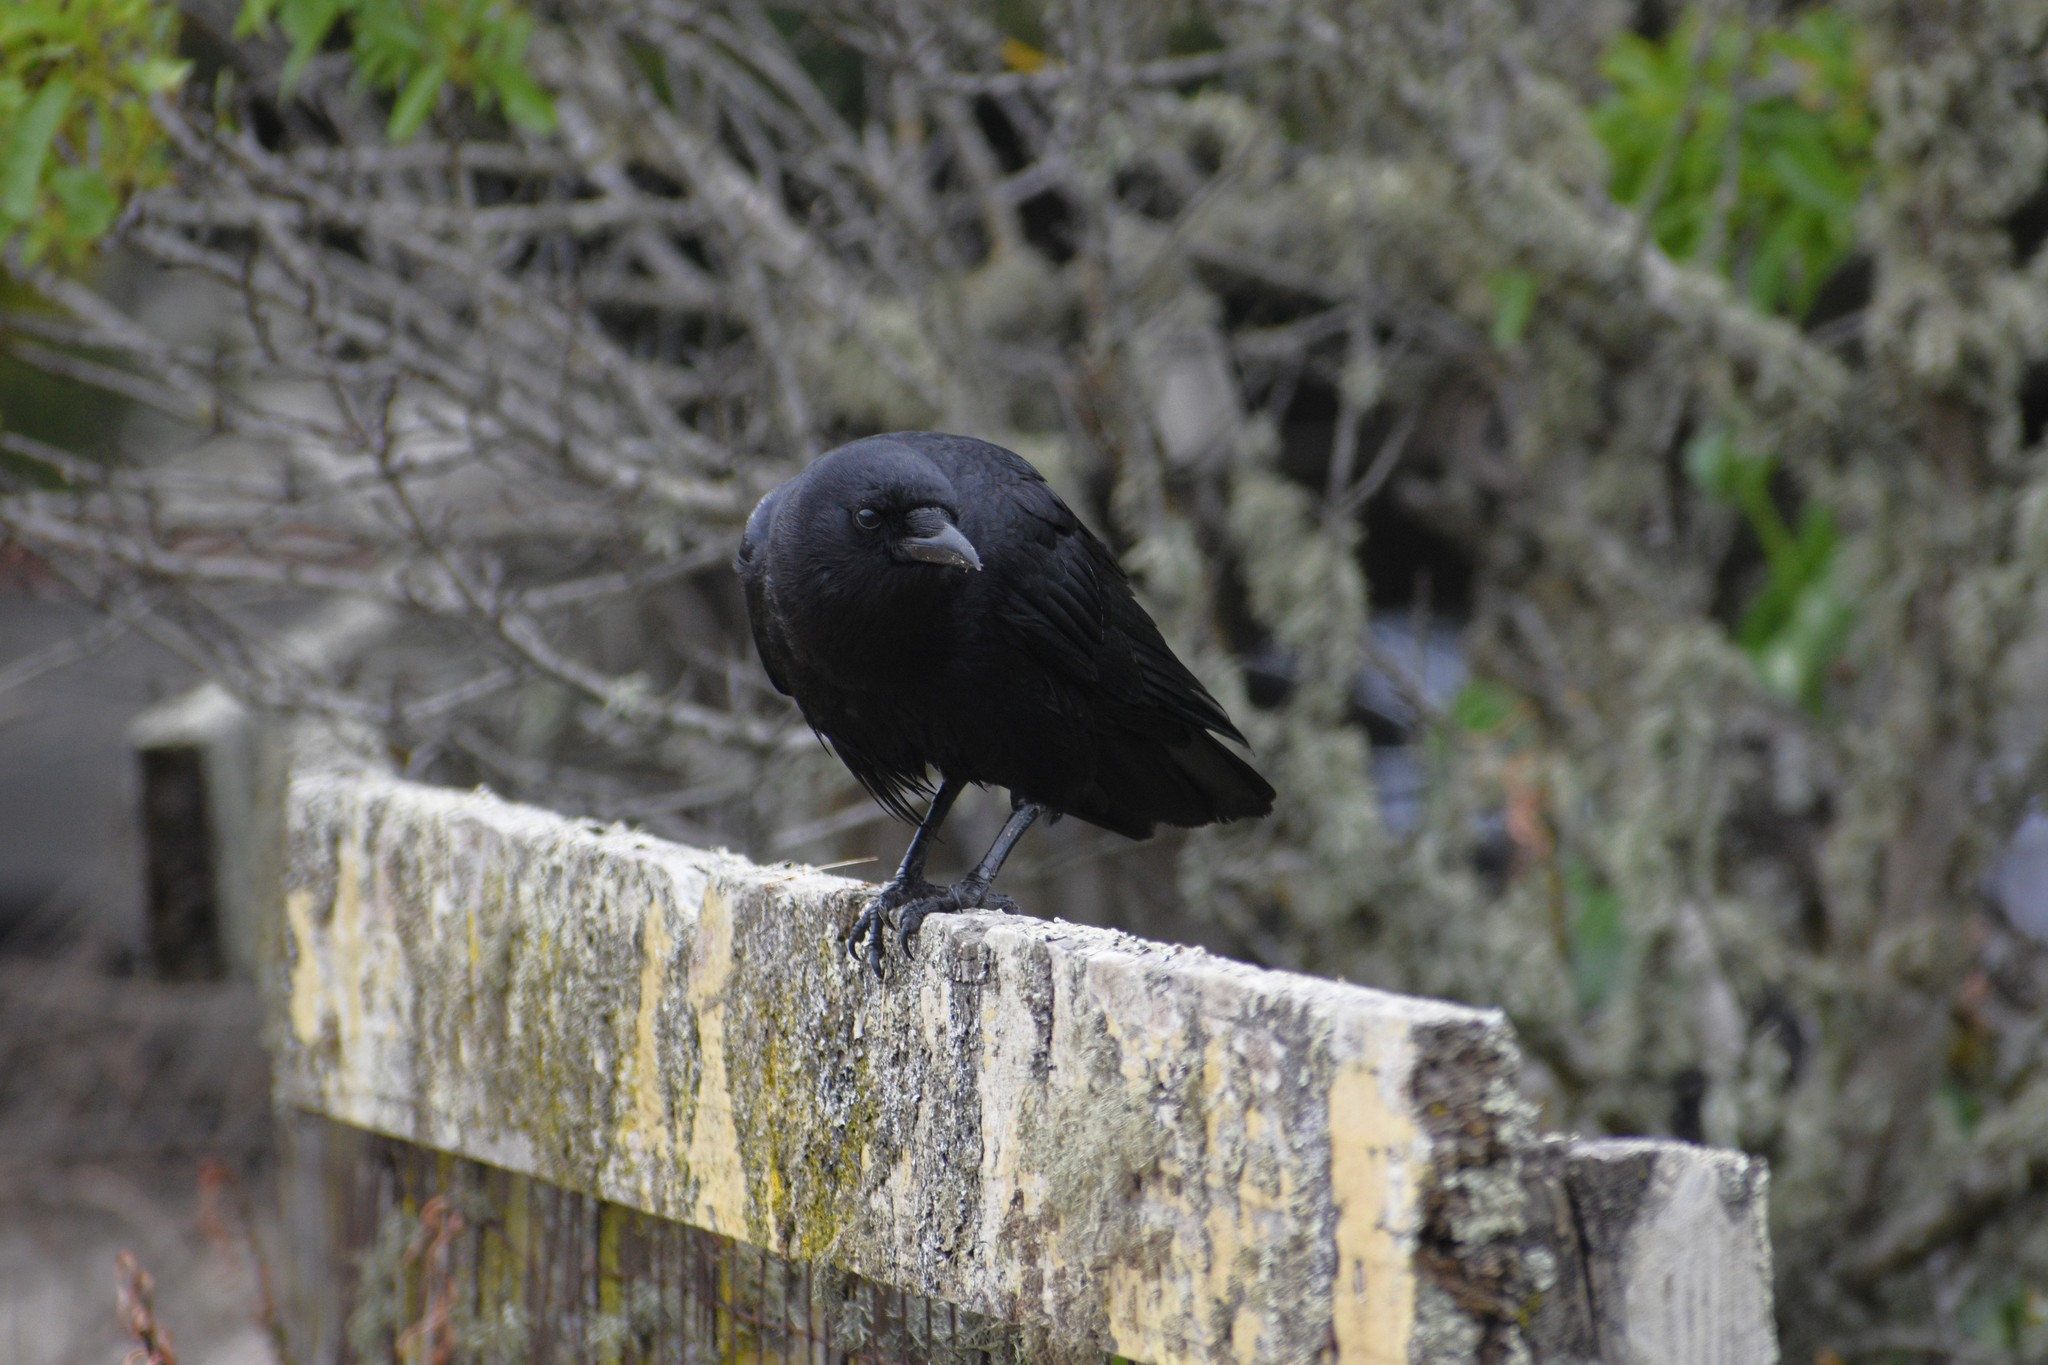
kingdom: Animalia
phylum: Chordata
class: Aves
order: Passeriformes
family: Corvidae
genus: Corvus
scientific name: Corvus brachyrhynchos
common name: American crow
